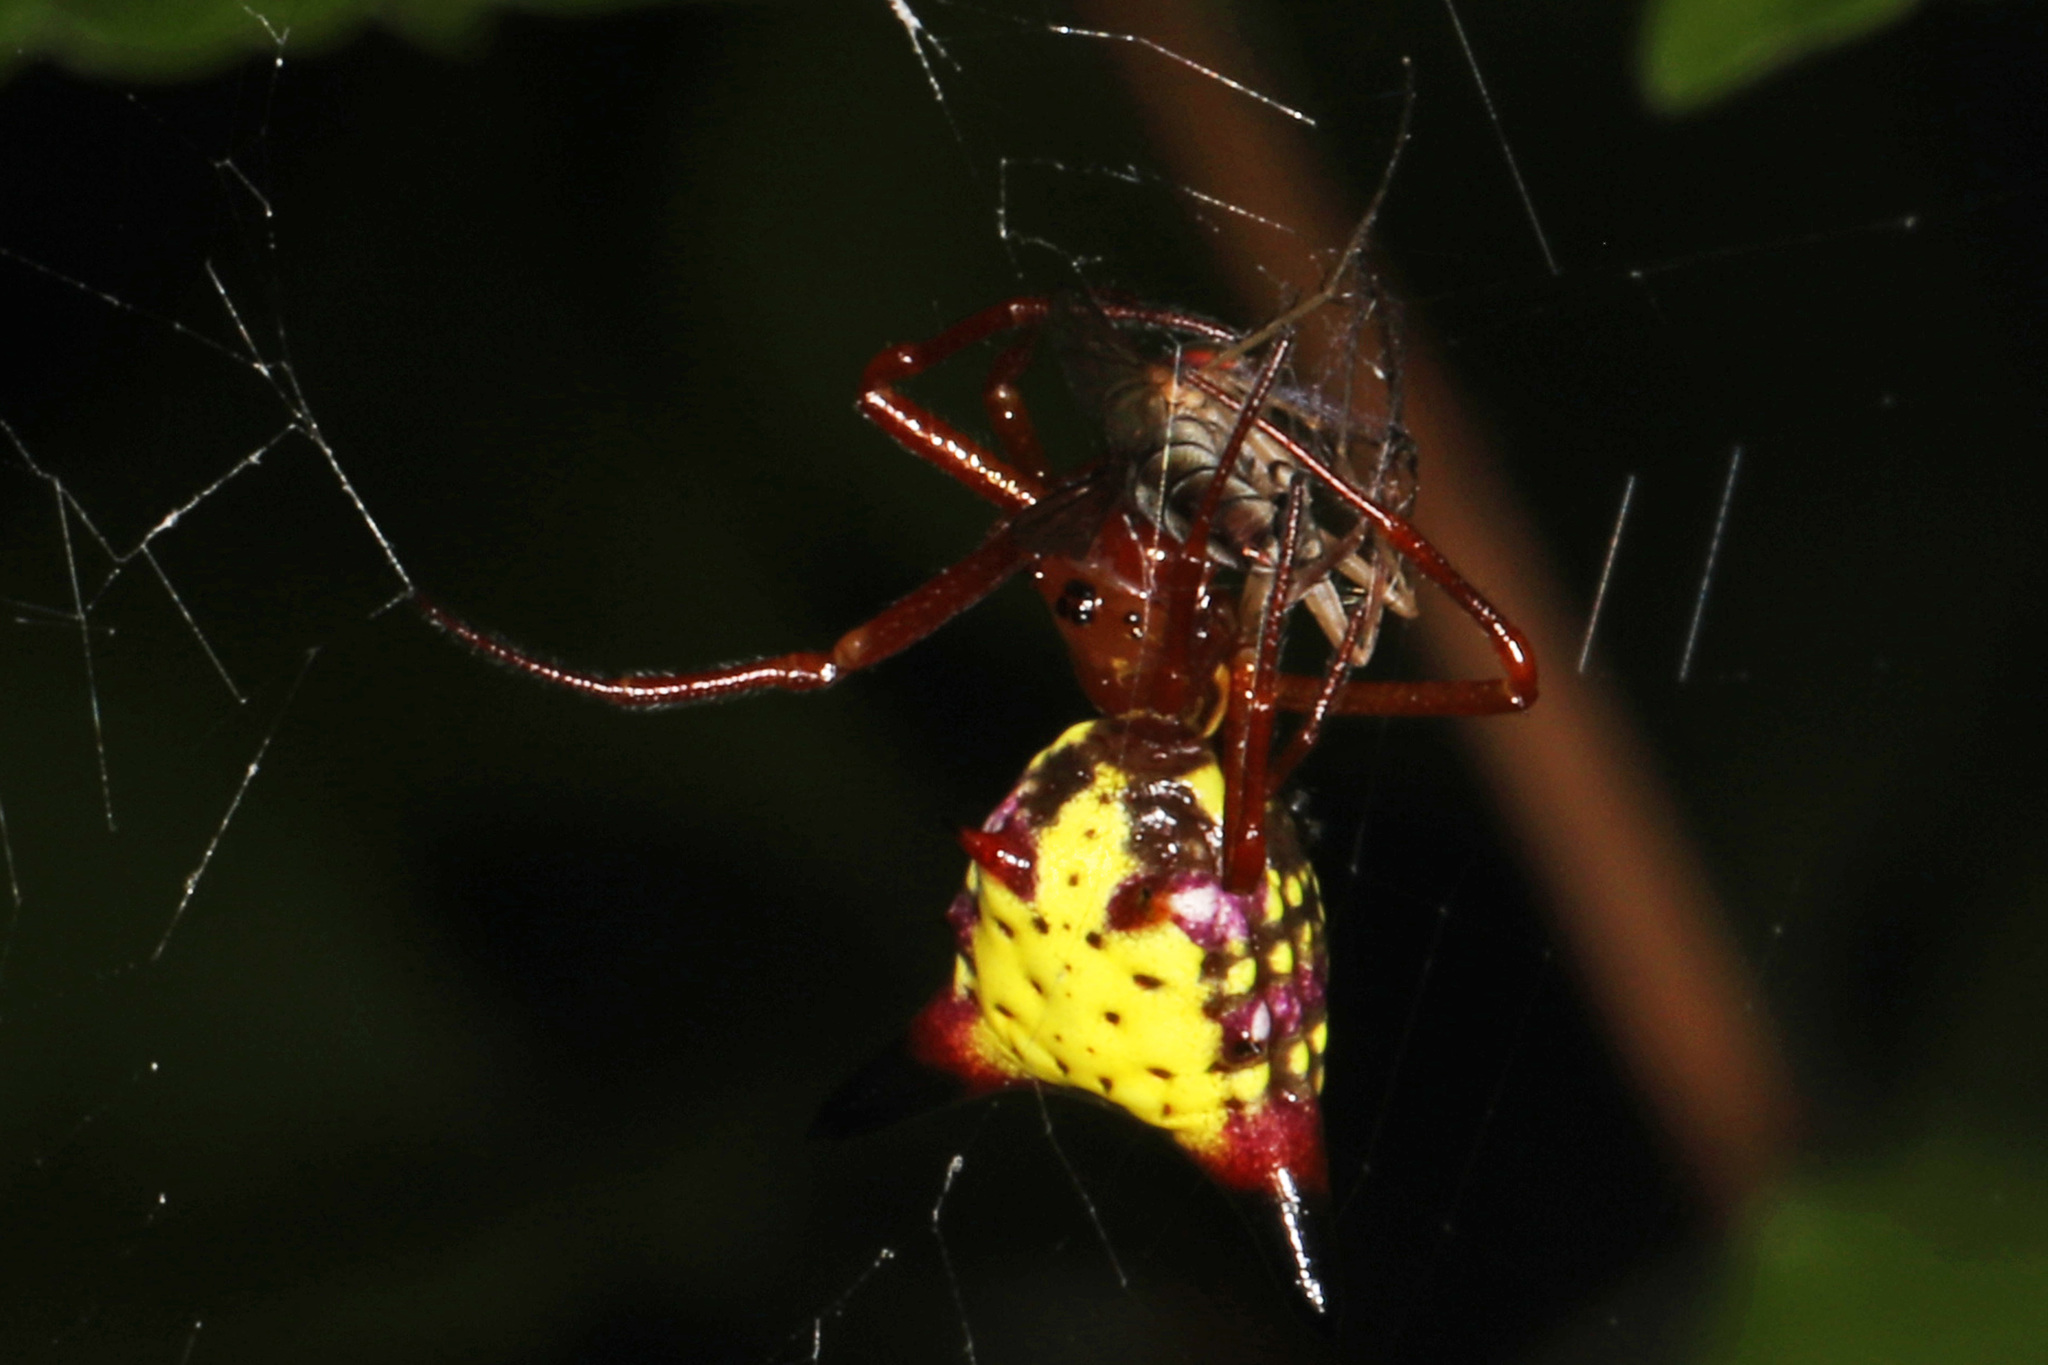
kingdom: Animalia
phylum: Arthropoda
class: Arachnida
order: Araneae
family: Araneidae
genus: Micrathena
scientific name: Micrathena sagittata
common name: Orb weavers
